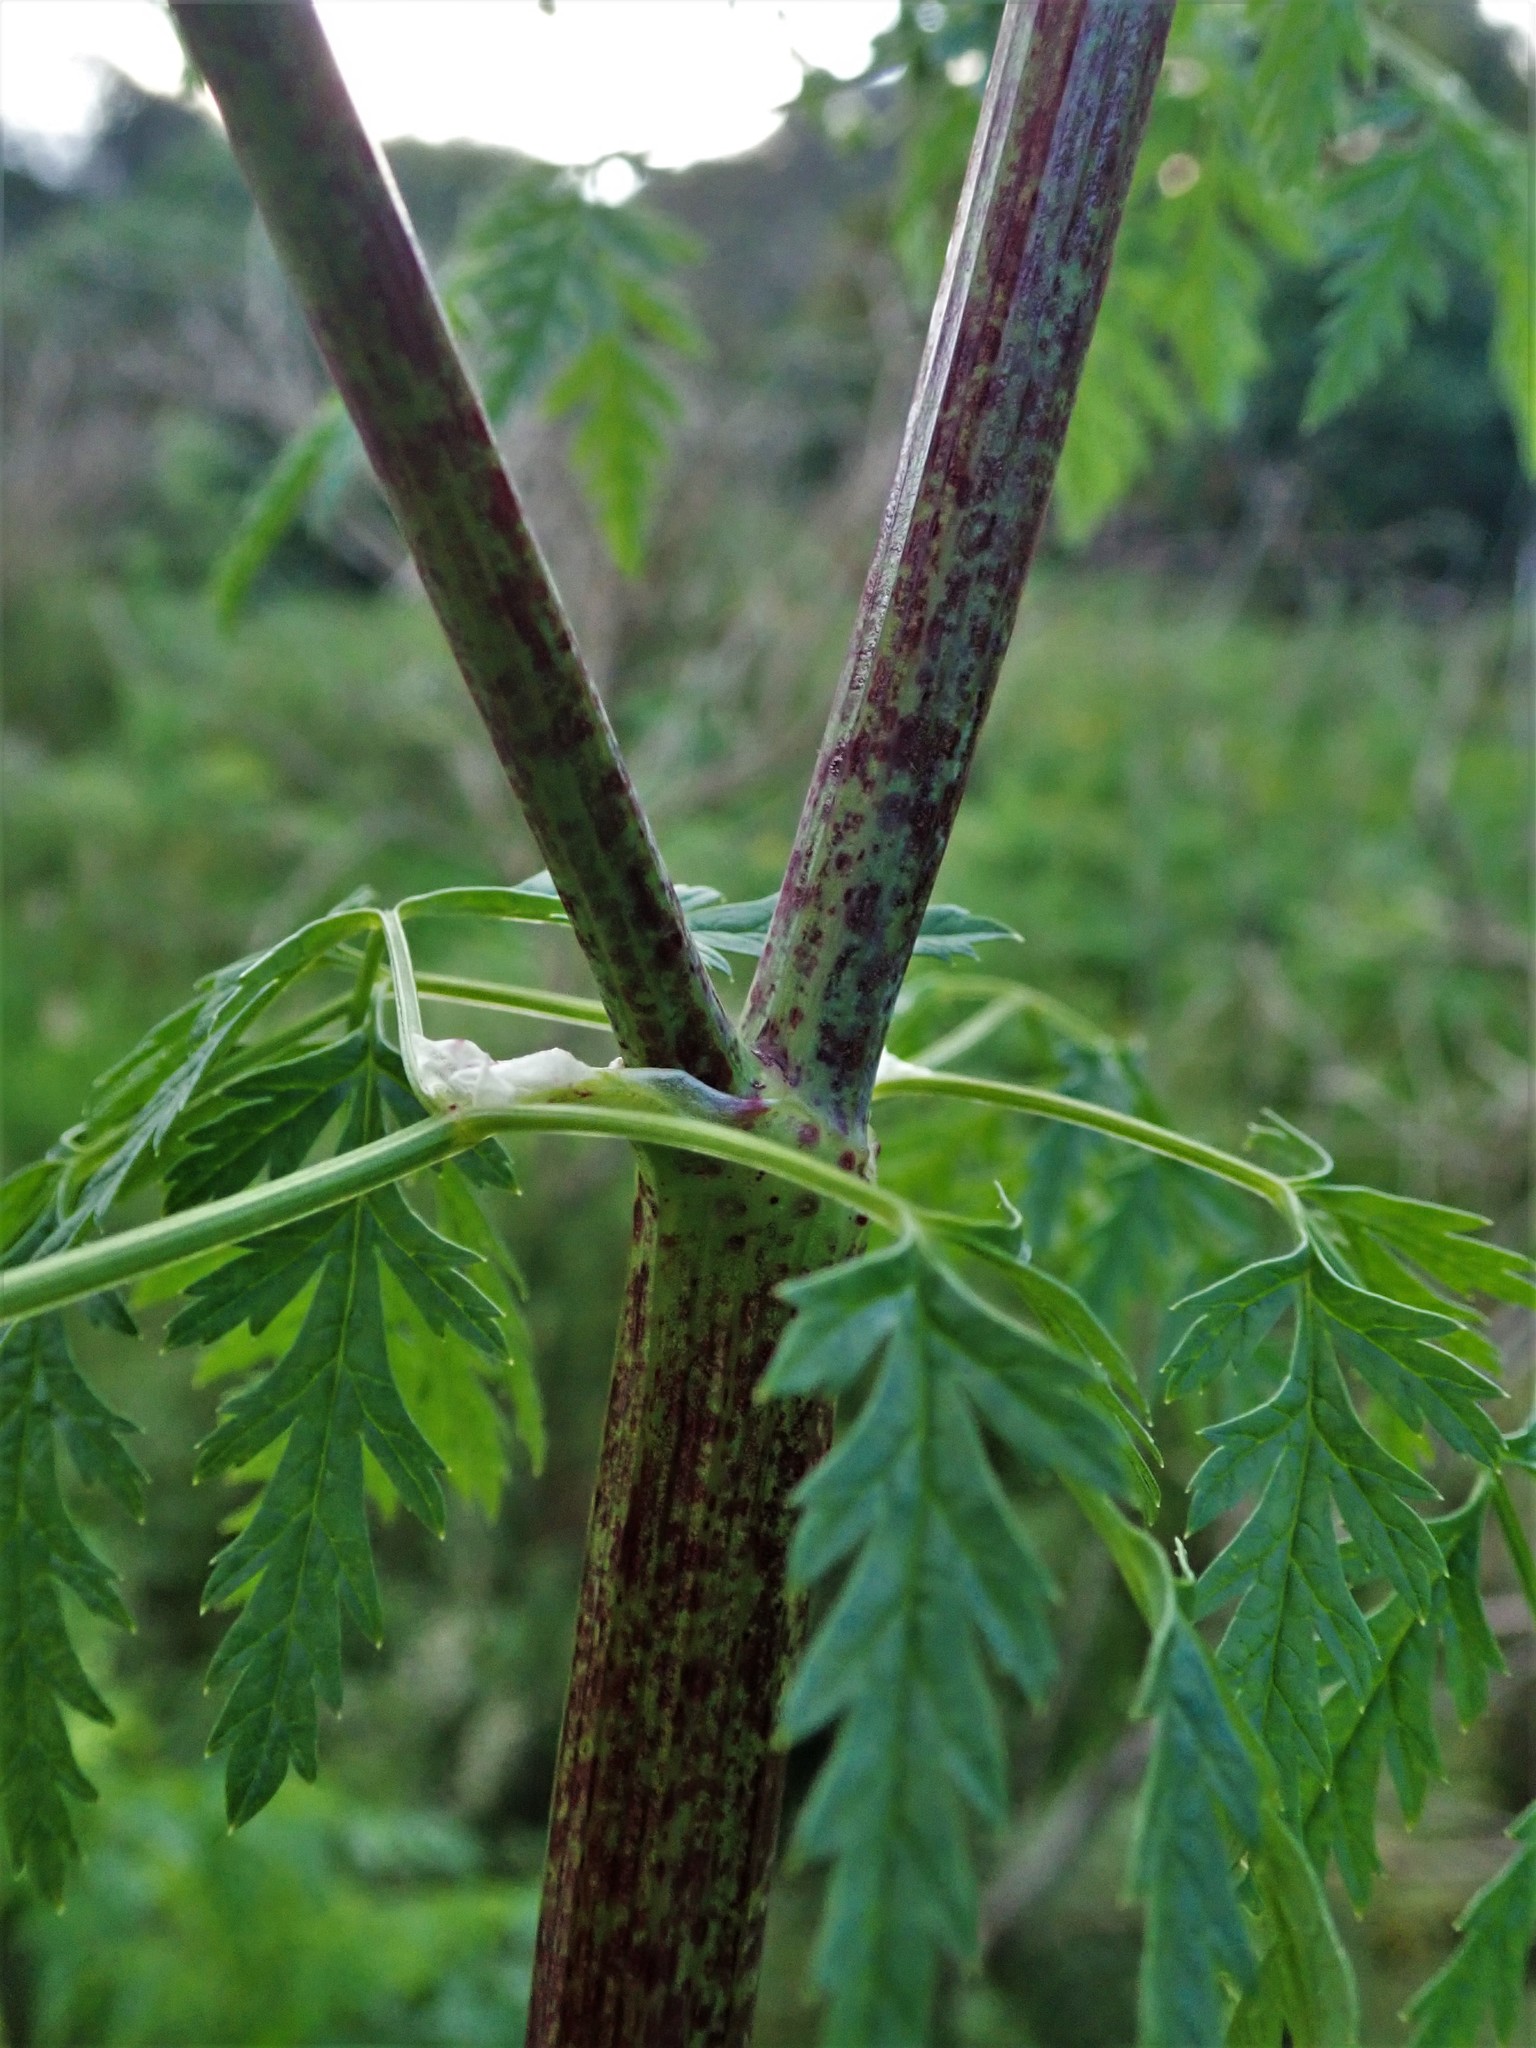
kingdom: Plantae
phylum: Tracheophyta
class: Magnoliopsida
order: Apiales
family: Apiaceae
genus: Conium
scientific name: Conium maculatum
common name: Hemlock
